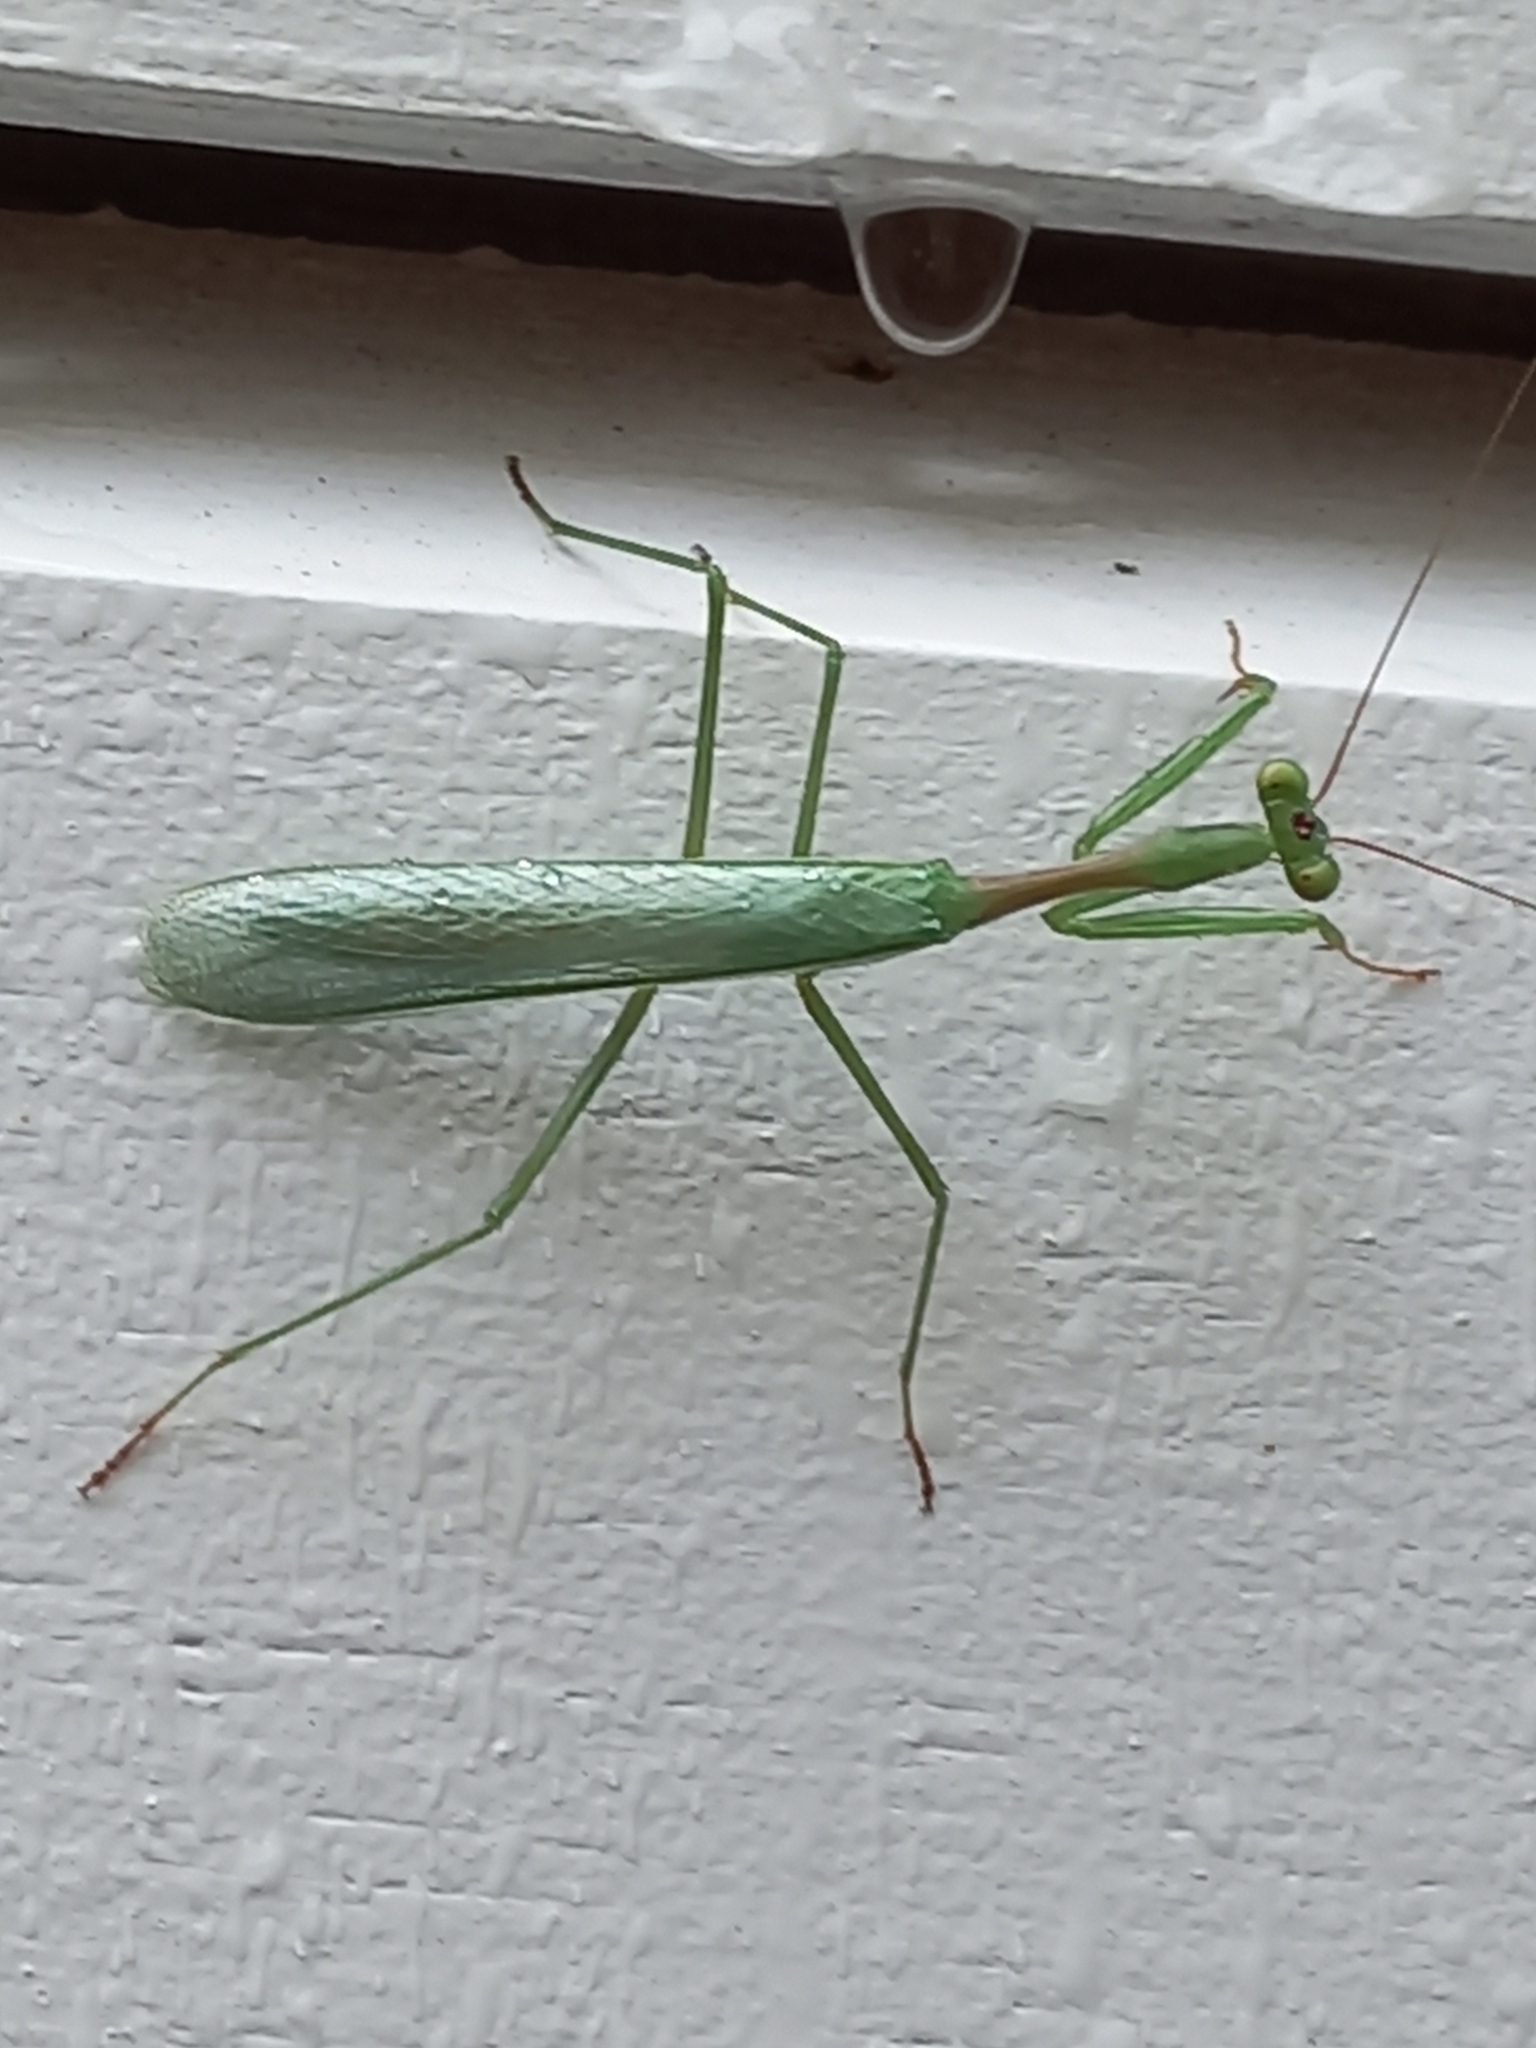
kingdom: Animalia
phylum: Arthropoda
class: Insecta
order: Mantodea
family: Miomantidae
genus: Miomantis
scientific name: Miomantis caffra
